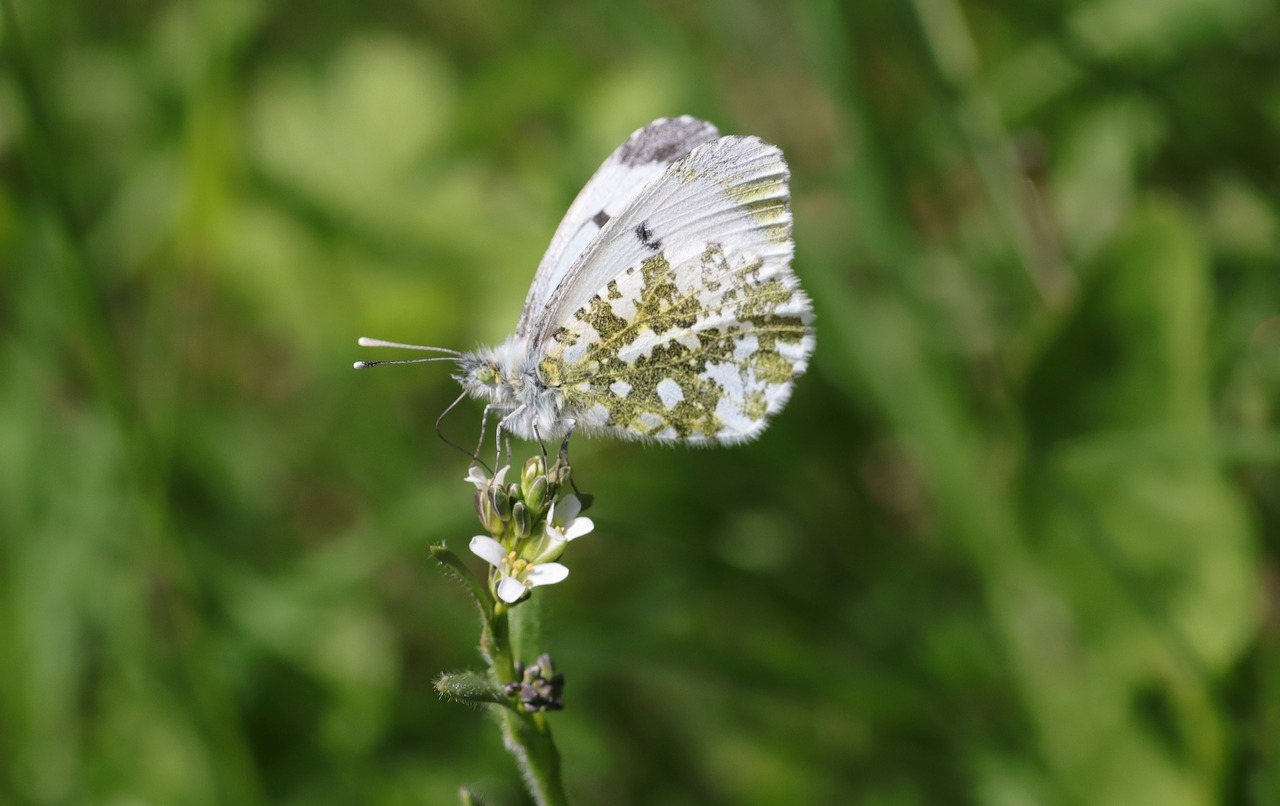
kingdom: Animalia
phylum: Arthropoda
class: Insecta
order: Lepidoptera
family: Pieridae
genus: Anthocharis
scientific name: Anthocharis cardamines
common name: Orange-tip
